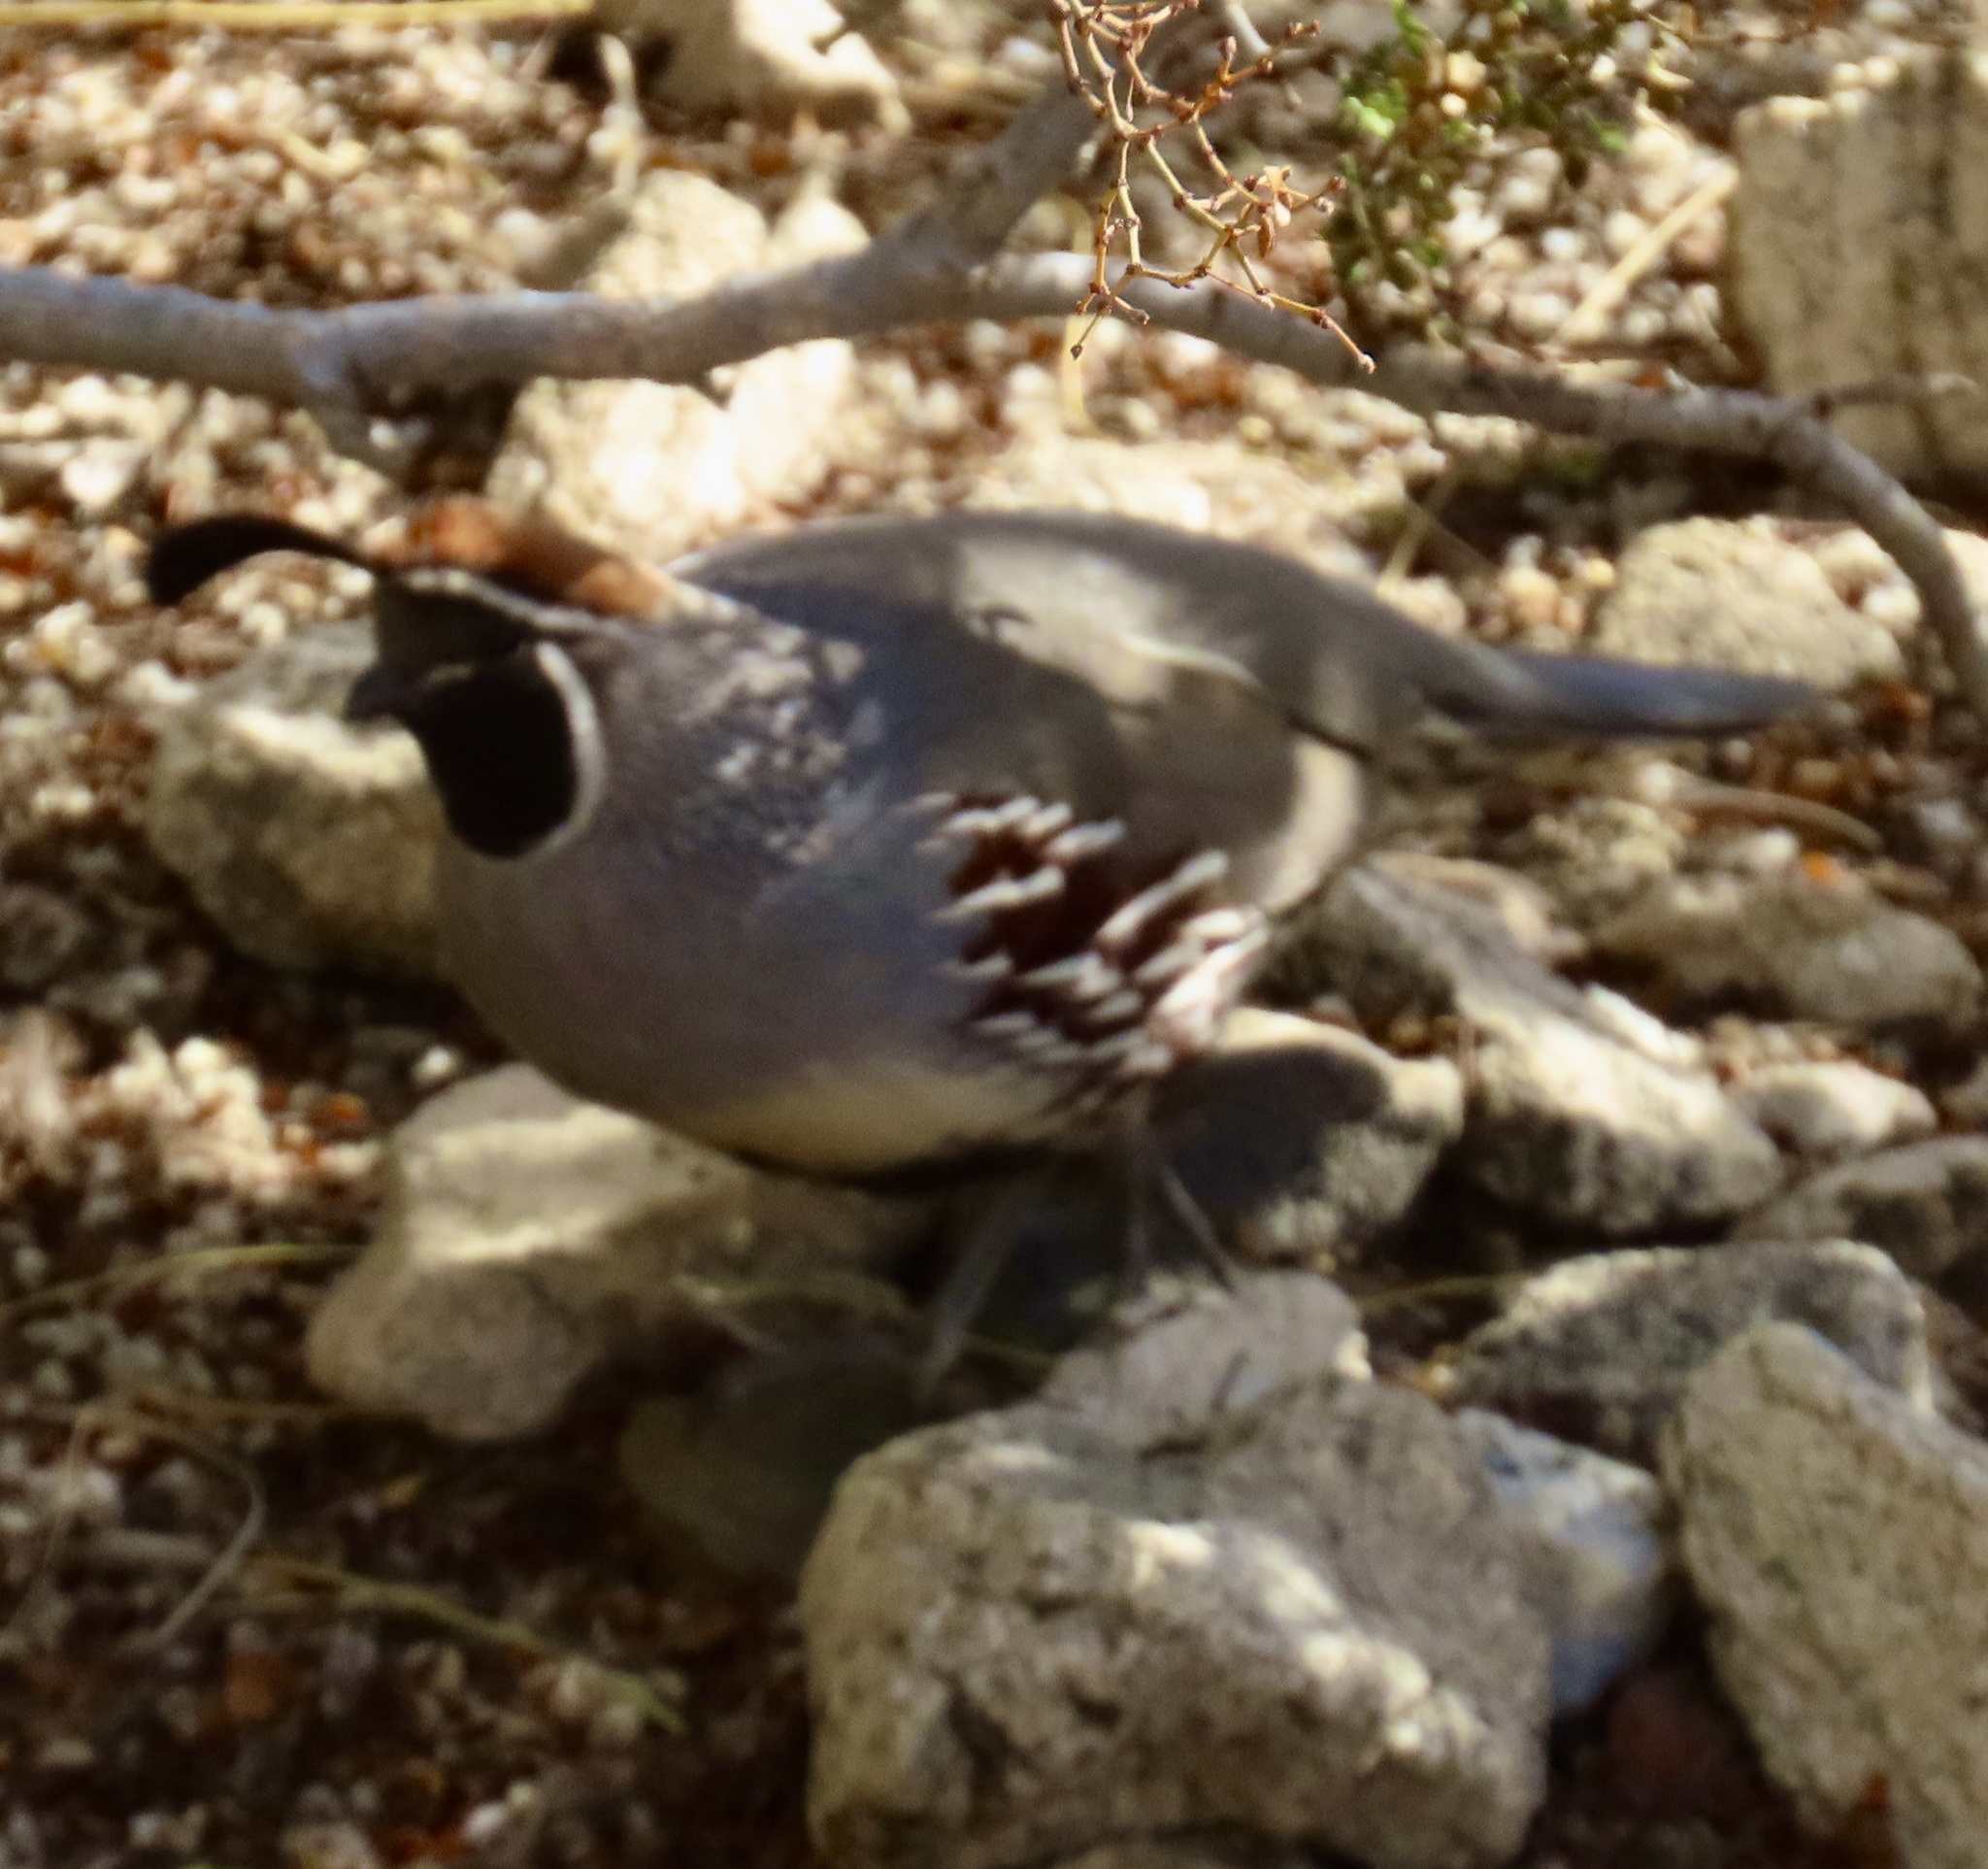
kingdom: Animalia
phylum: Chordata
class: Aves
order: Galliformes
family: Odontophoridae
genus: Callipepla
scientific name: Callipepla gambelii
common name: Gambel's quail
